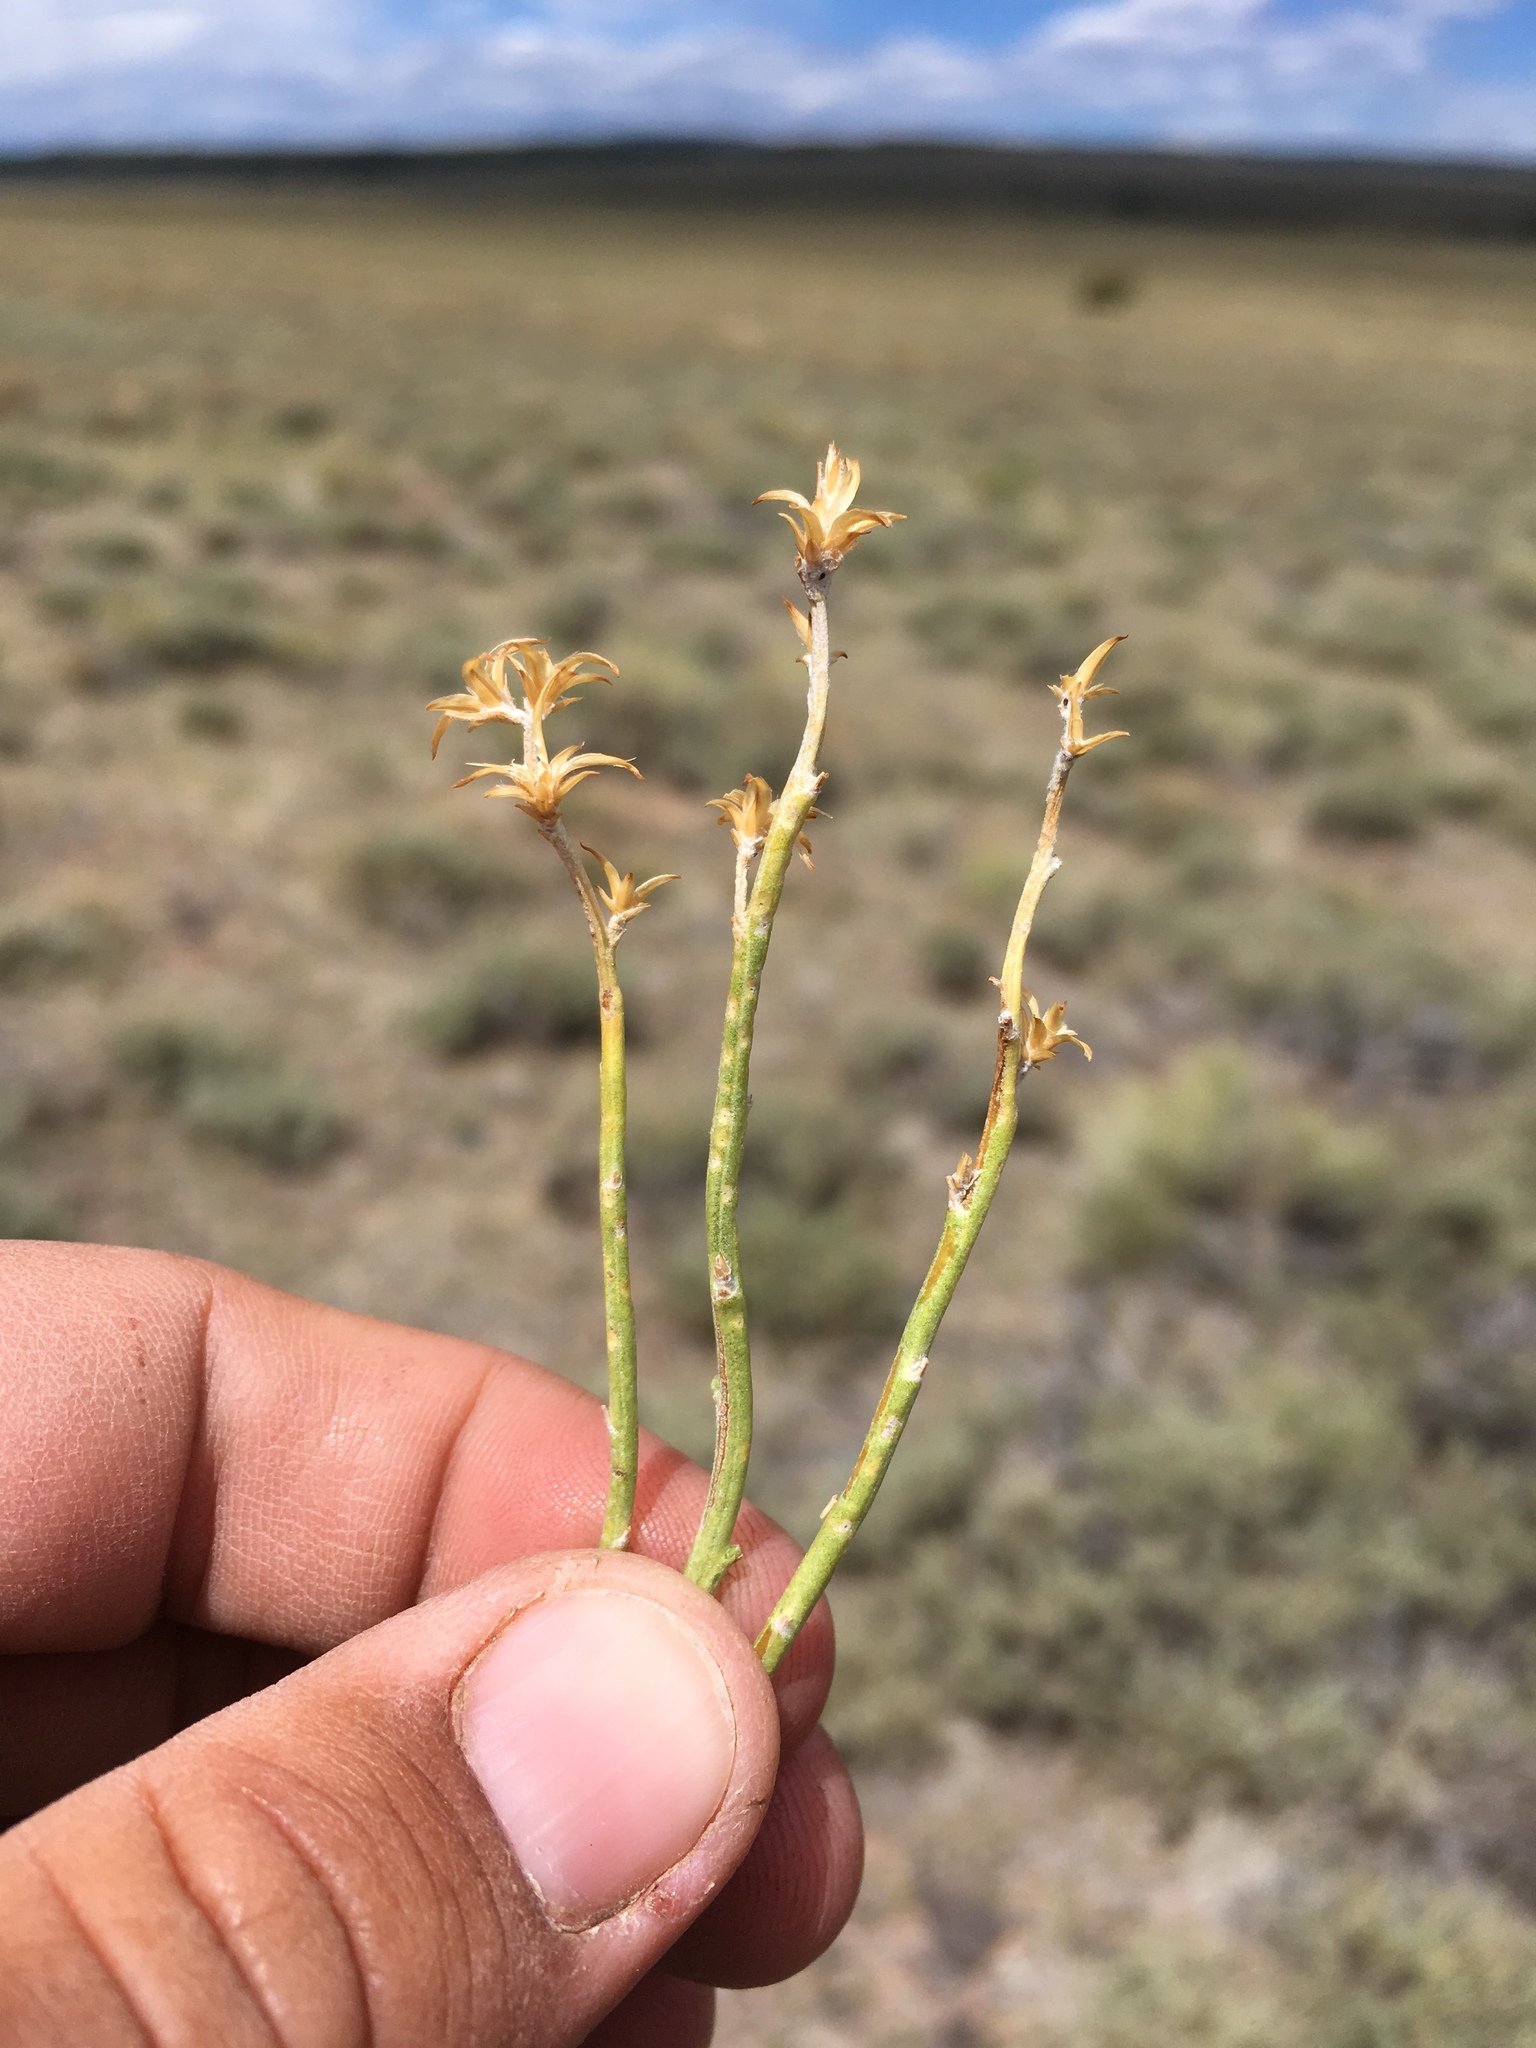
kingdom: Plantae
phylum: Tracheophyta
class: Magnoliopsida
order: Asterales
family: Asteraceae
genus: Ericameria
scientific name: Ericameria nauseosa
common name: Rubber rabbitbrush
